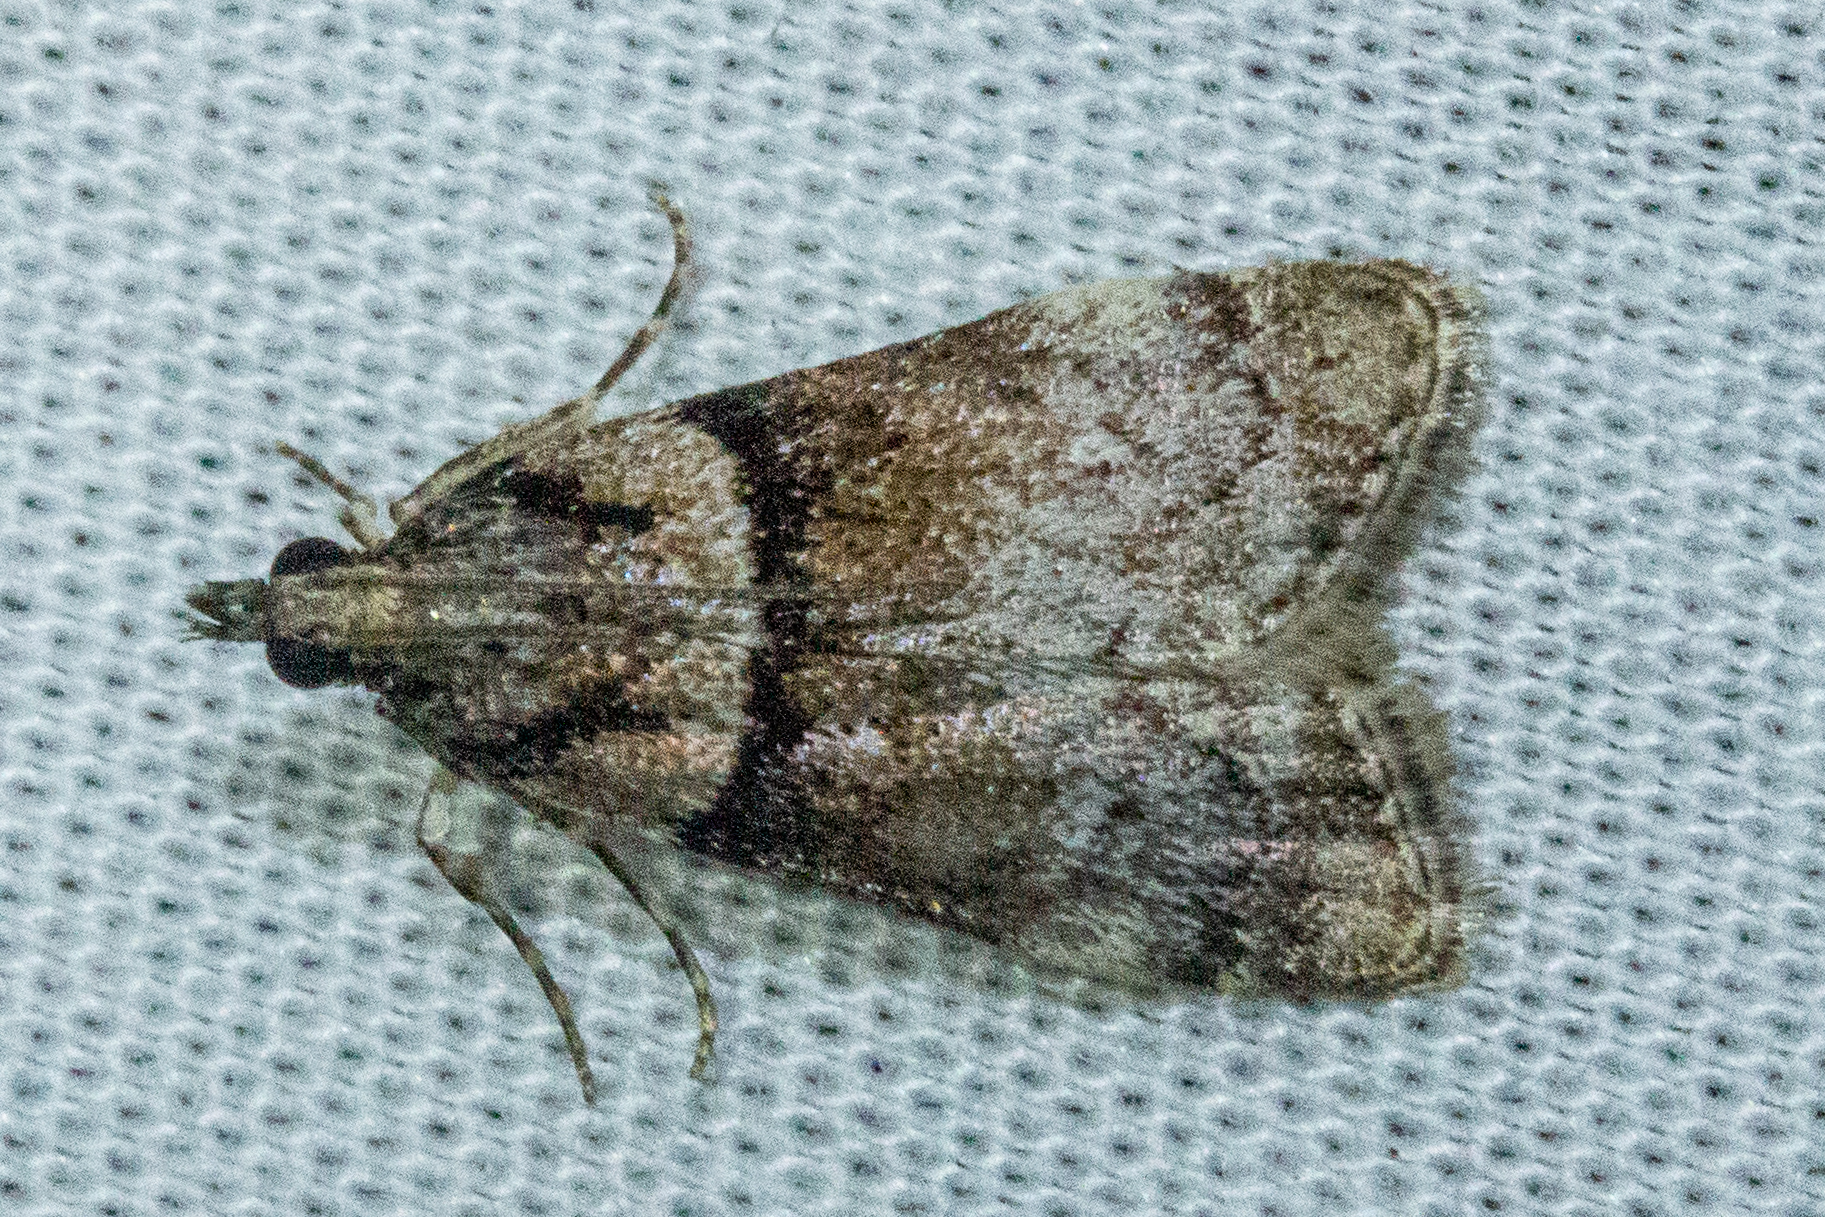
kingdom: Animalia
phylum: Arthropoda
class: Insecta
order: Lepidoptera
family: Crambidae
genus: Eudonia
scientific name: Eudonia colpota
